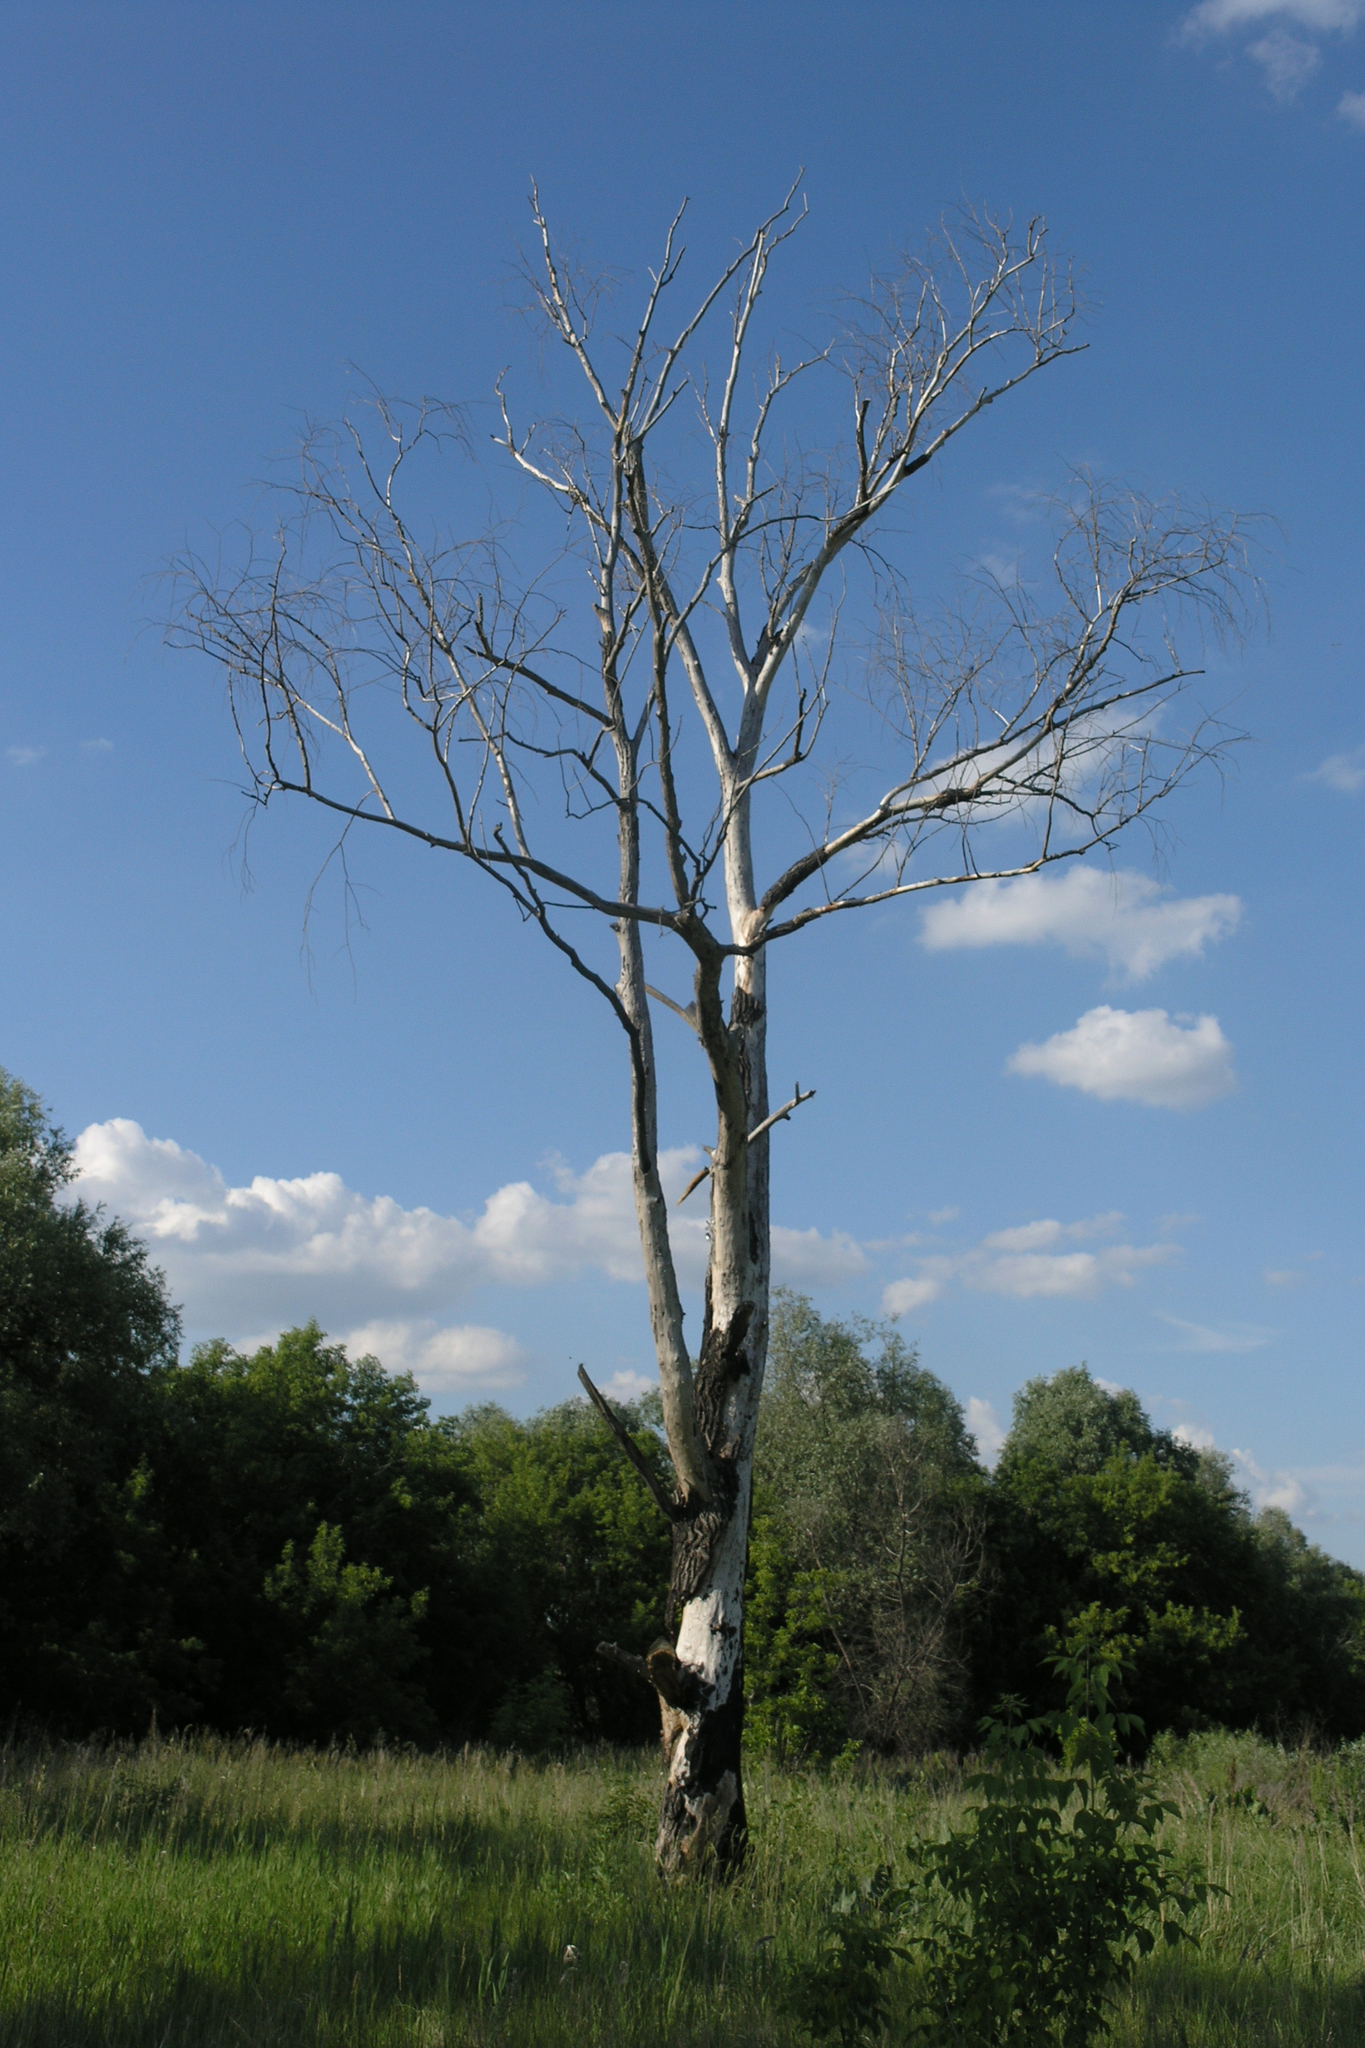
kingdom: Plantae
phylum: Tracheophyta
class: Magnoliopsida
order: Malpighiales
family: Salicaceae
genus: Salix
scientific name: Salix alba
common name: White willow
